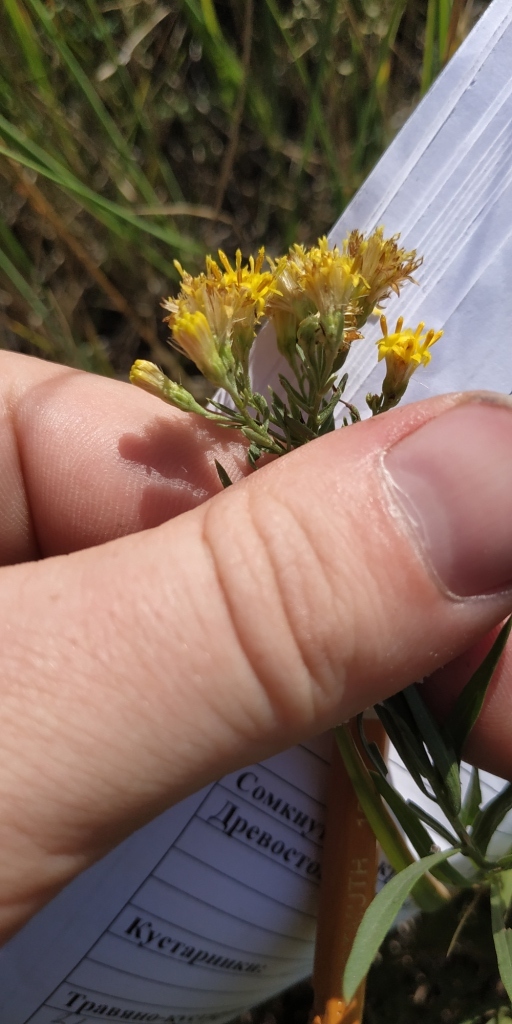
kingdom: Plantae
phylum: Tracheophyta
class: Magnoliopsida
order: Asterales
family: Asteraceae
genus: Galatella
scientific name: Galatella biflora
